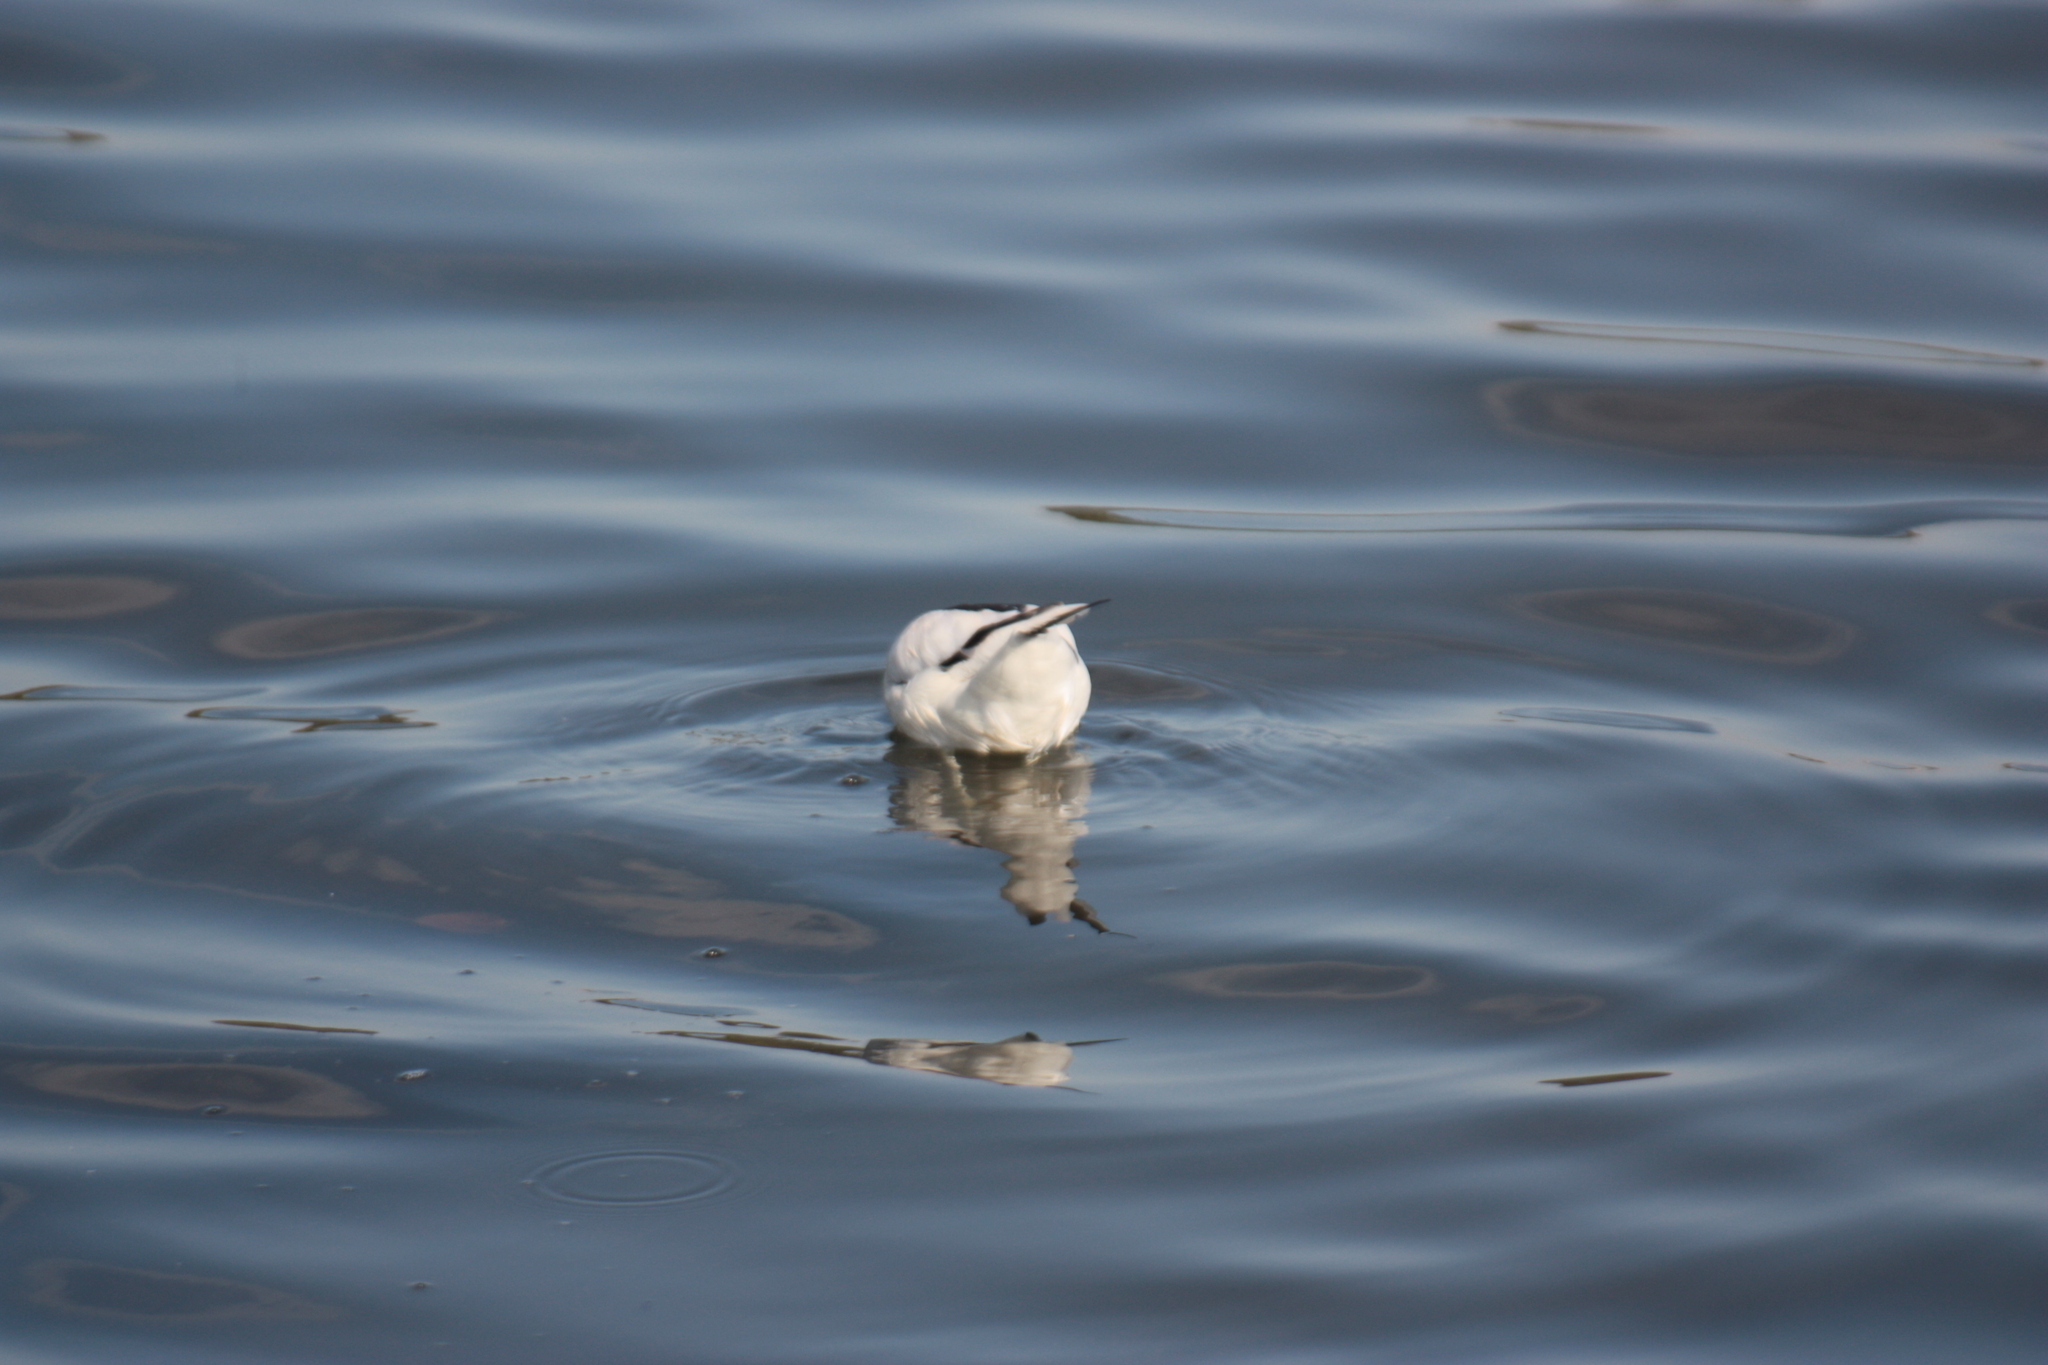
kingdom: Animalia
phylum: Chordata
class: Aves
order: Charadriiformes
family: Recurvirostridae
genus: Recurvirostra
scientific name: Recurvirostra avosetta
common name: Pied avocet
